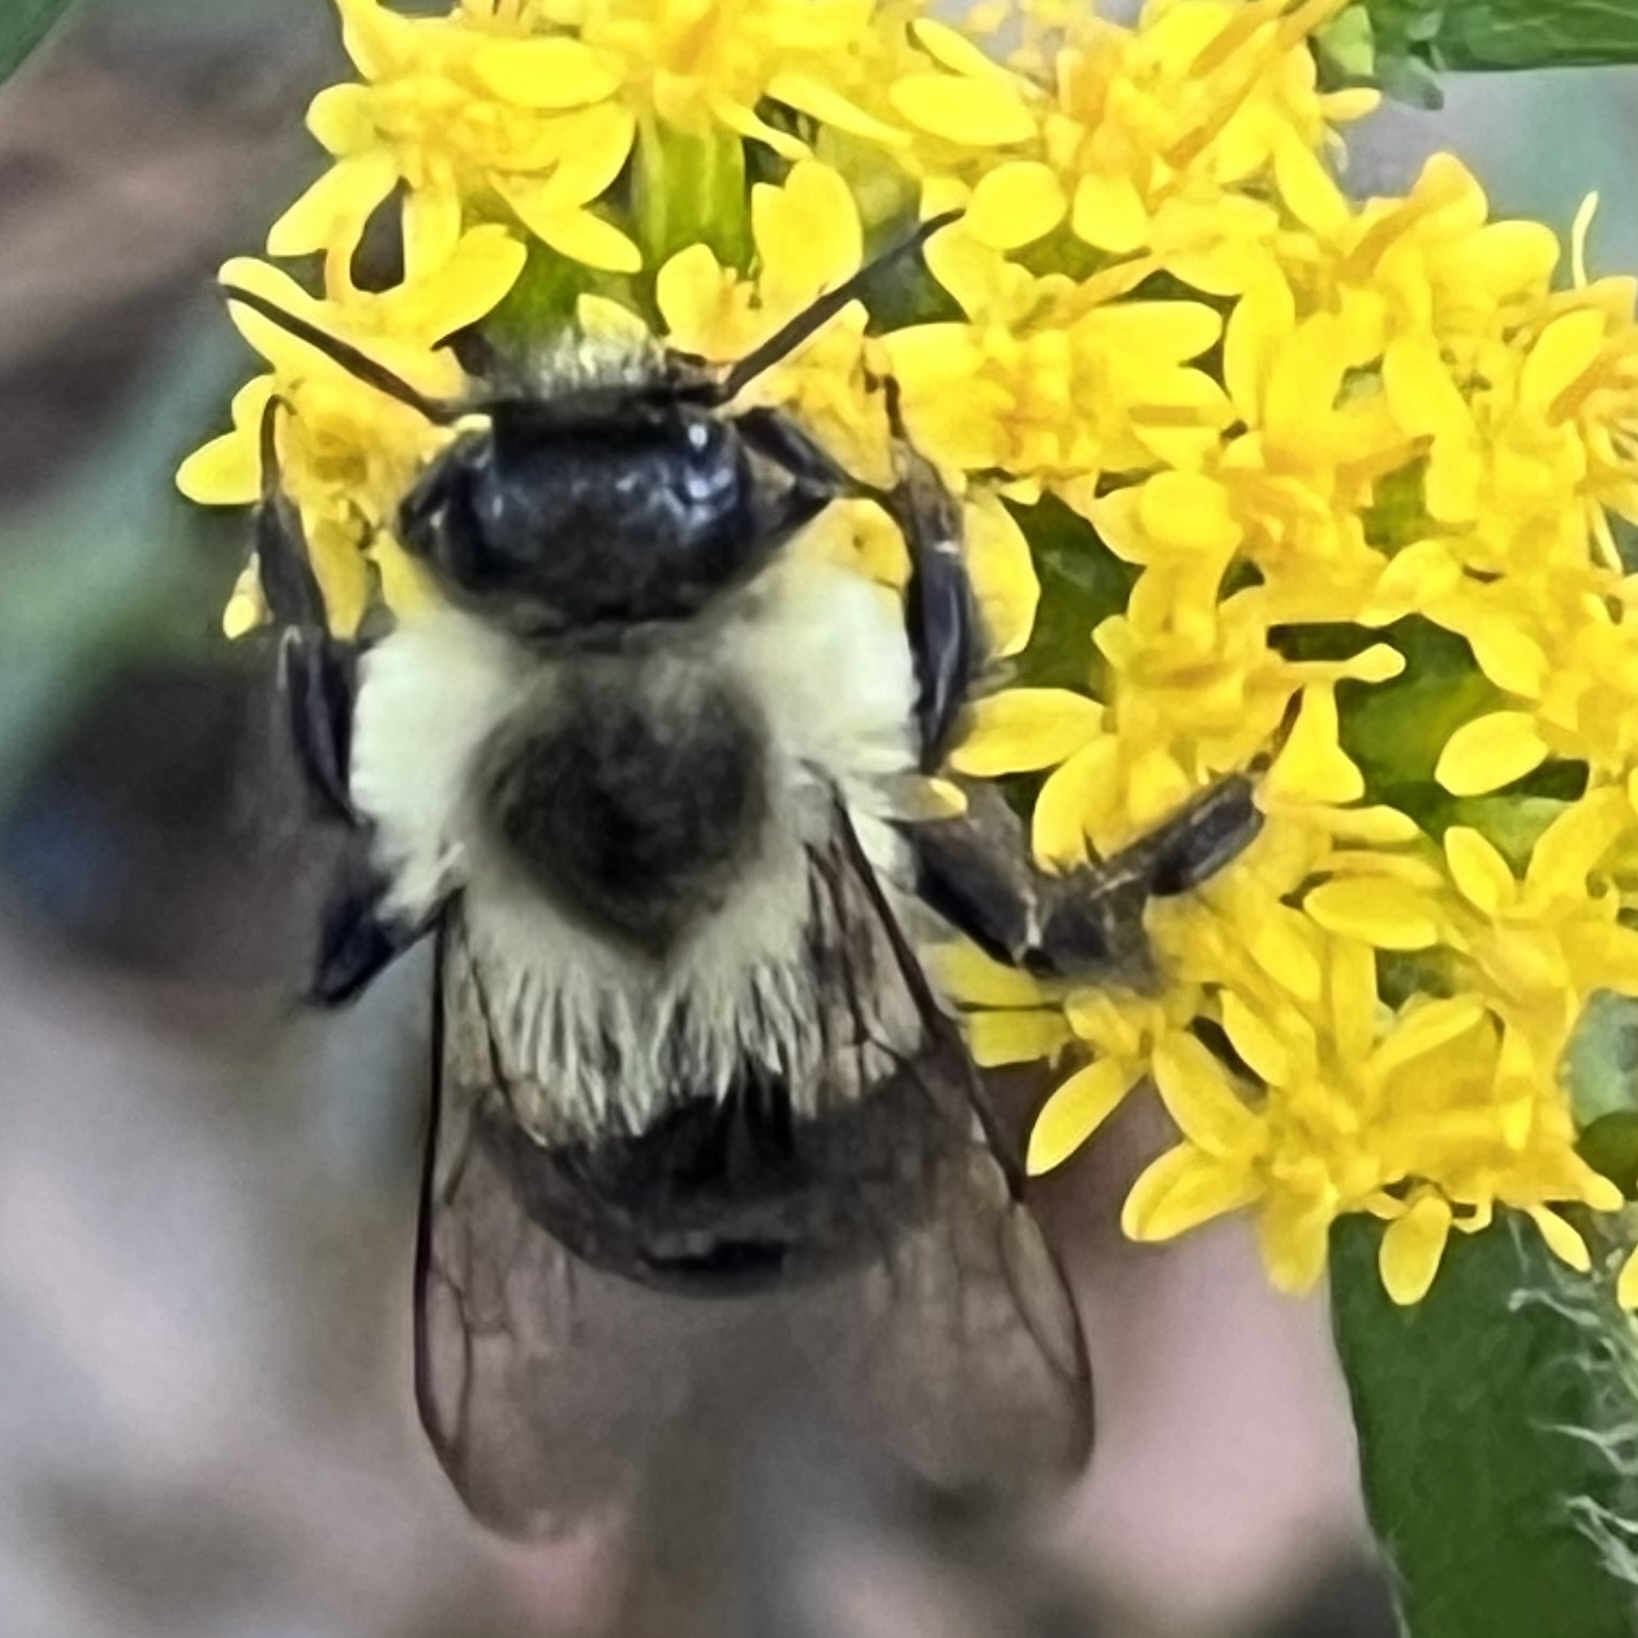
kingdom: Animalia
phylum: Arthropoda
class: Insecta
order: Hymenoptera
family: Apidae
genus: Bombus
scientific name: Bombus impatiens
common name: Common eastern bumble bee
